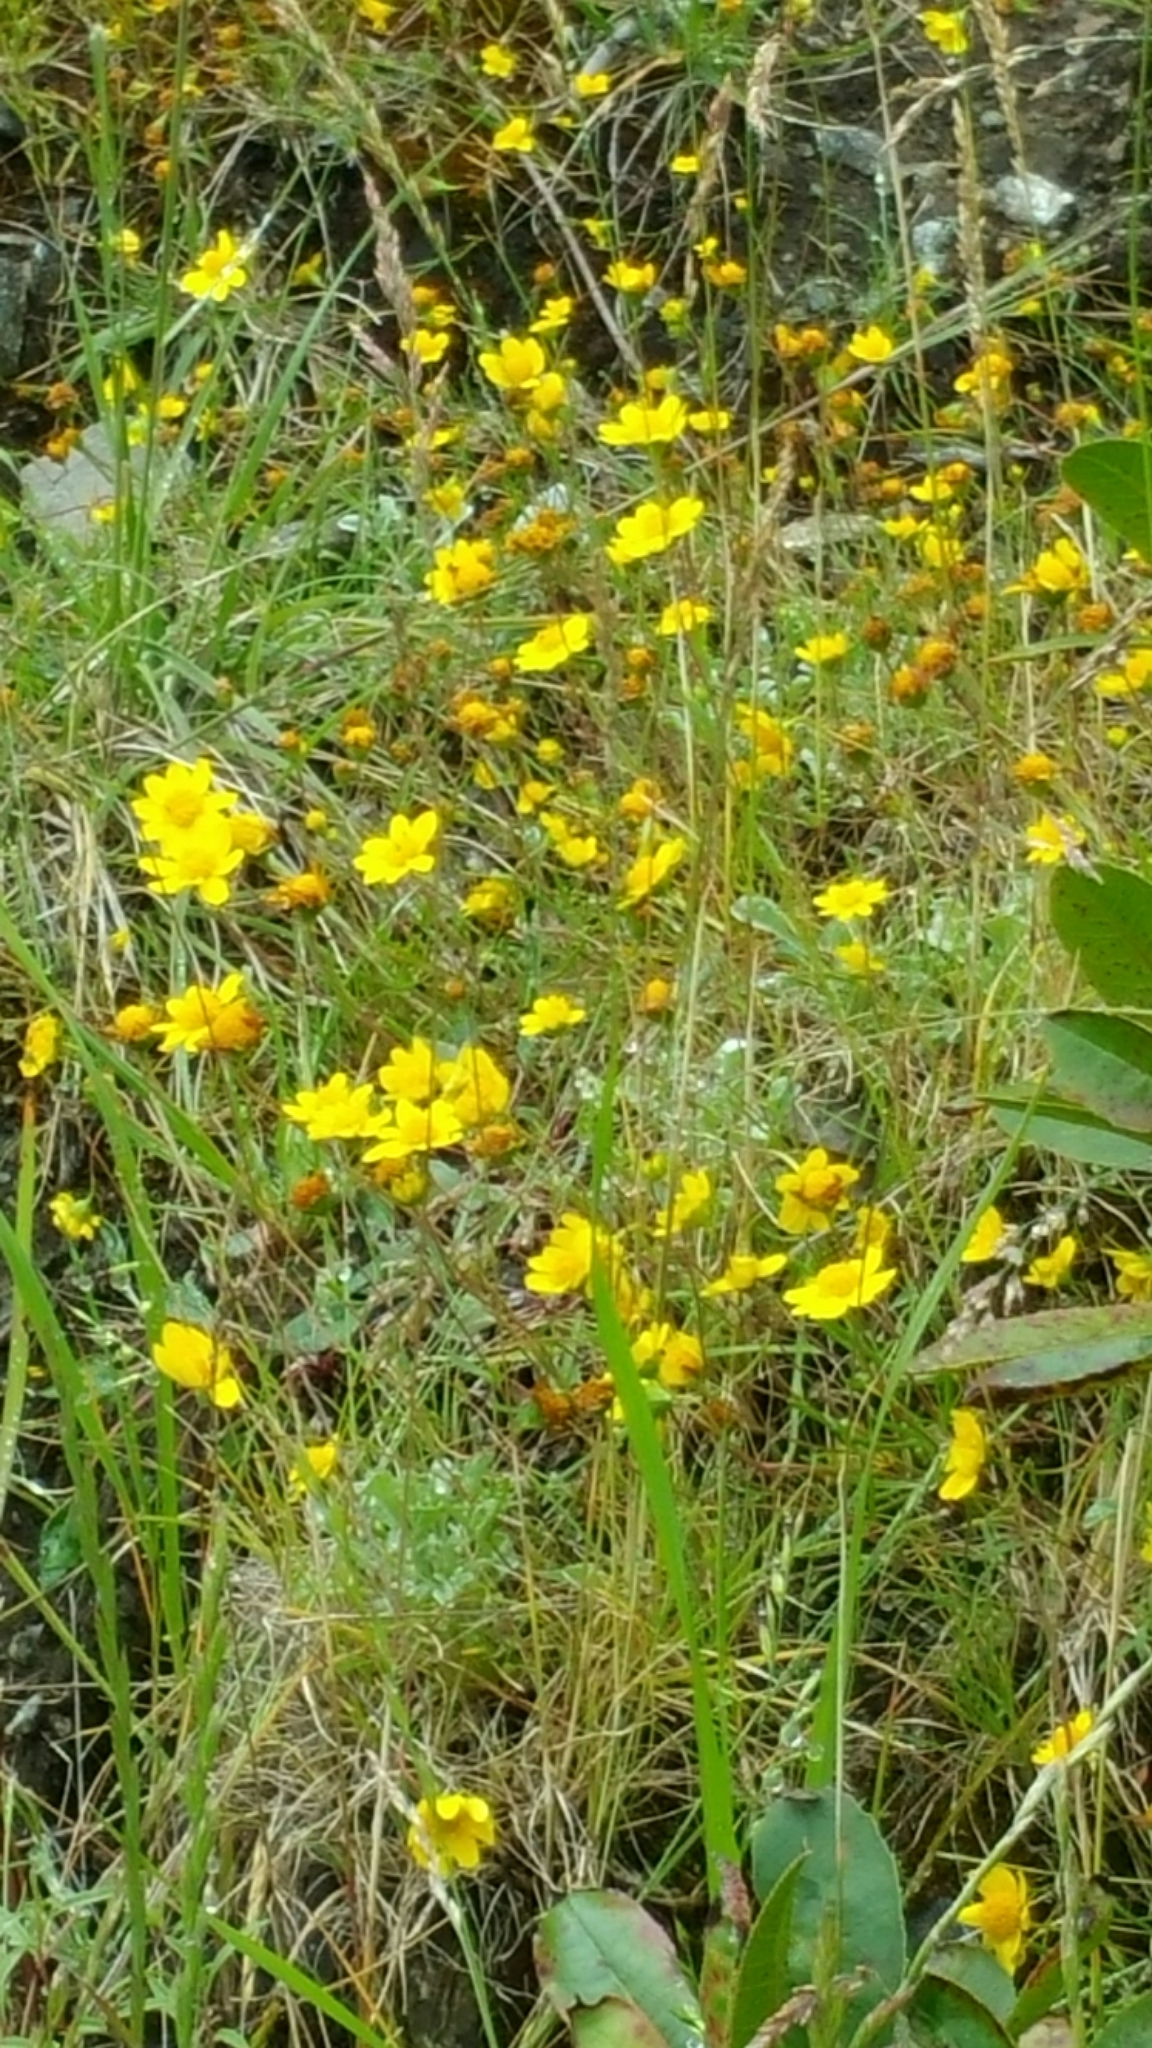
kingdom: Plantae
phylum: Tracheophyta
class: Magnoliopsida
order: Asterales
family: Asteraceae
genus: Lasthenia
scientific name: Lasthenia californica
